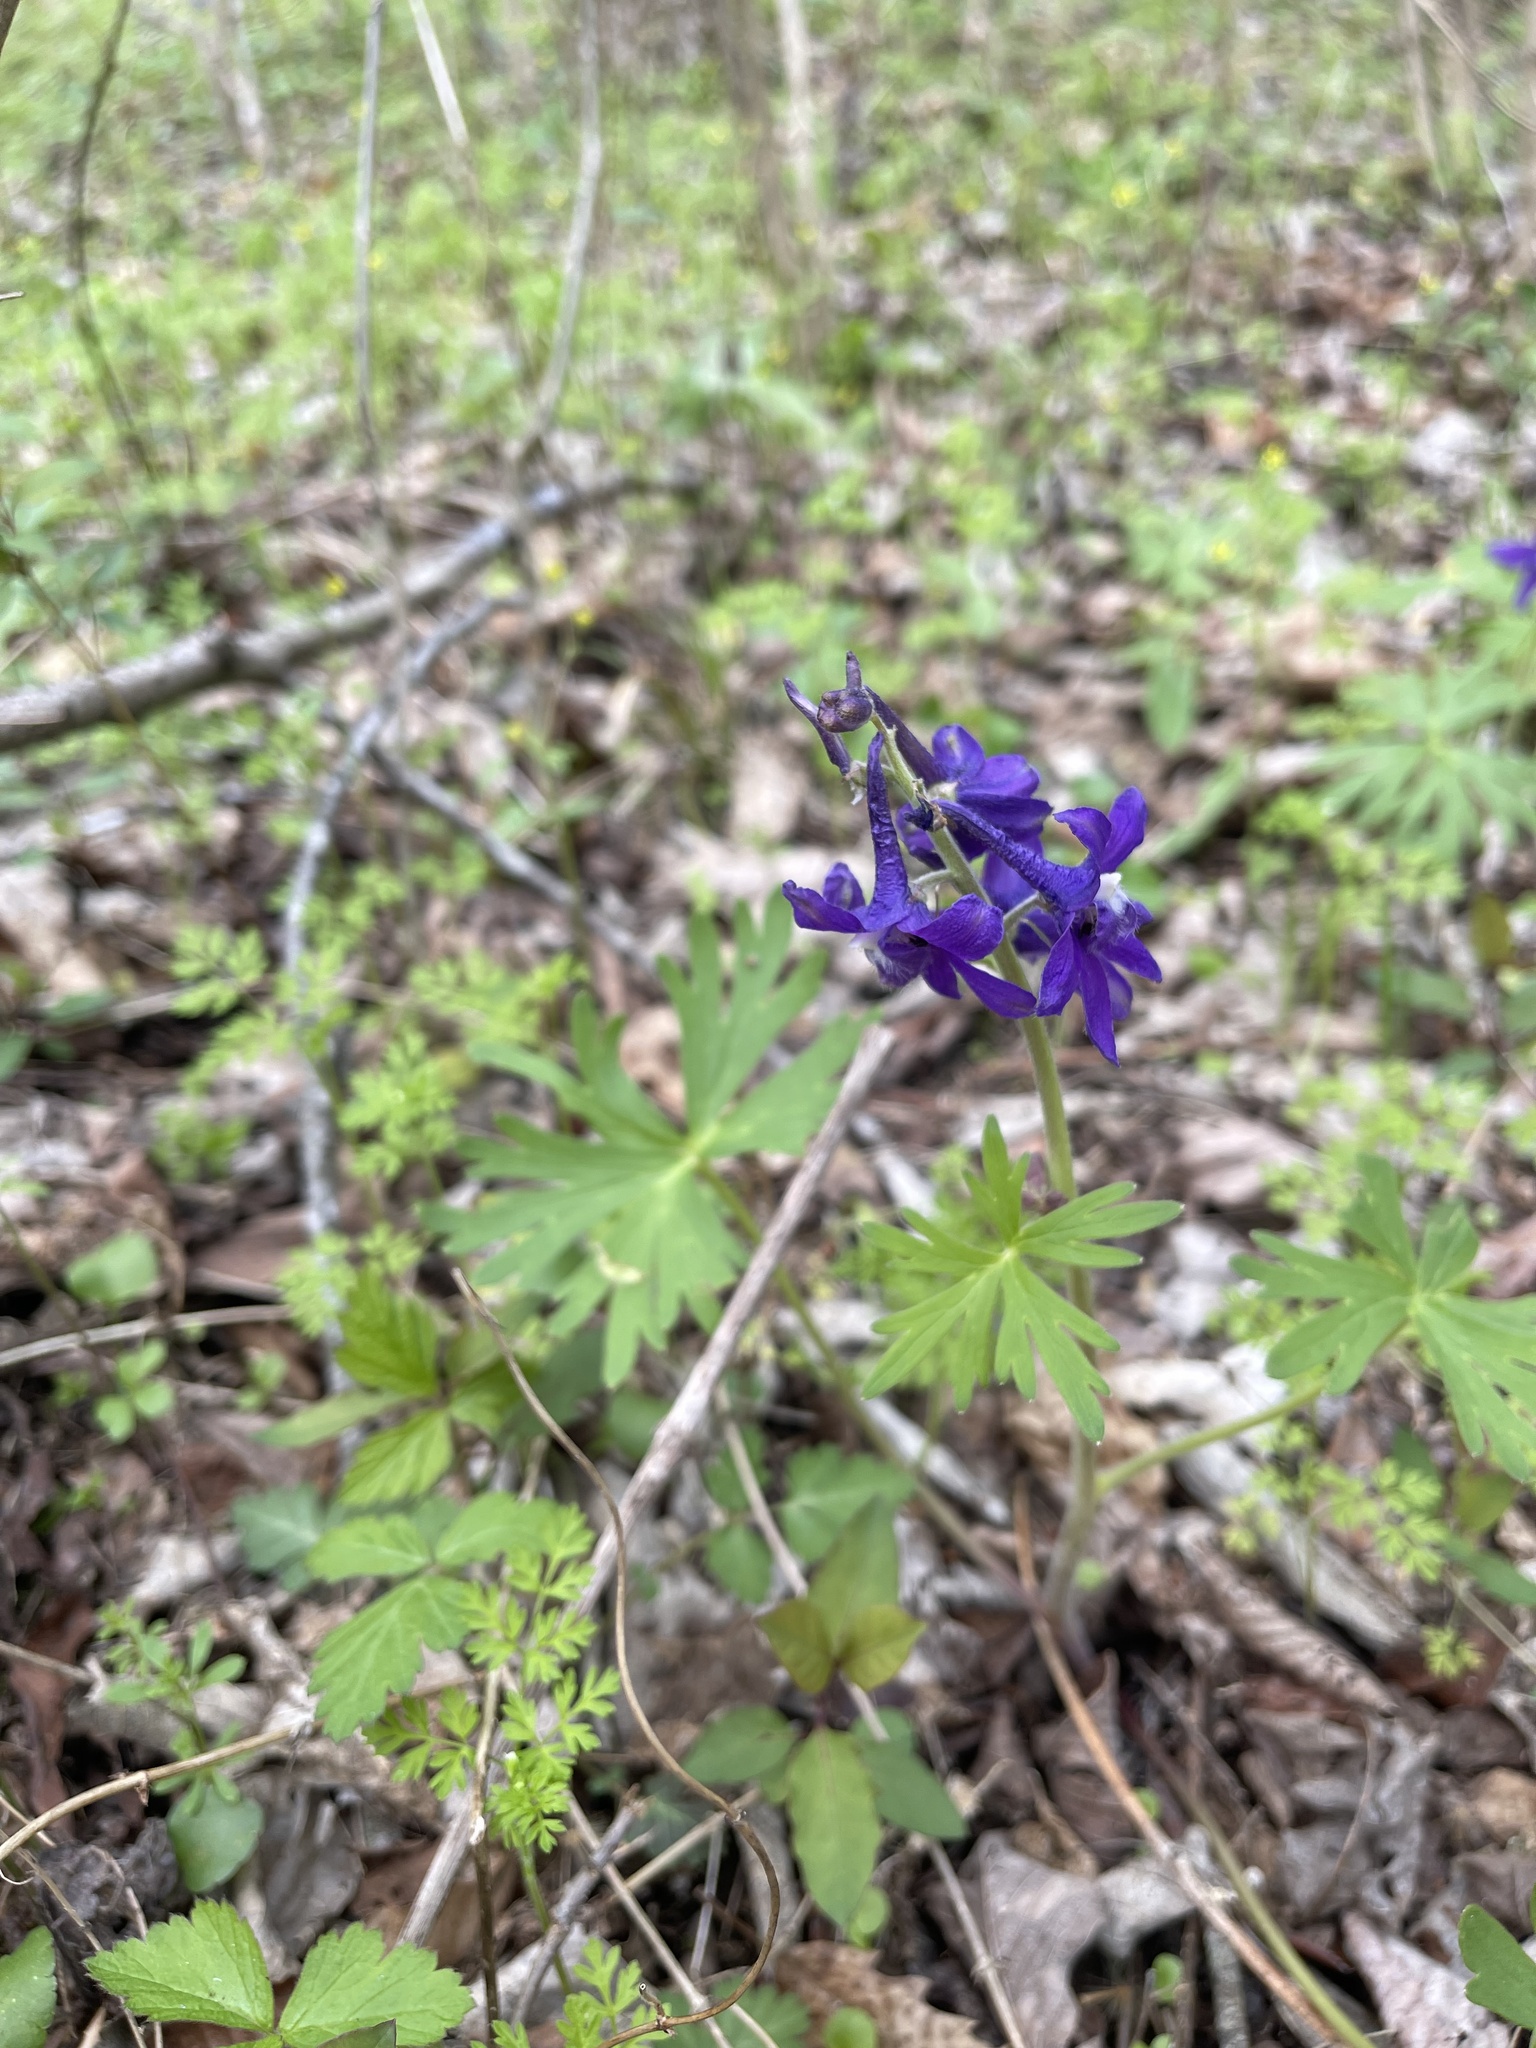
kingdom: Plantae
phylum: Tracheophyta
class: Magnoliopsida
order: Ranunculales
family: Ranunculaceae
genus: Delphinium
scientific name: Delphinium tricorne
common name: Dwarf larkspur
